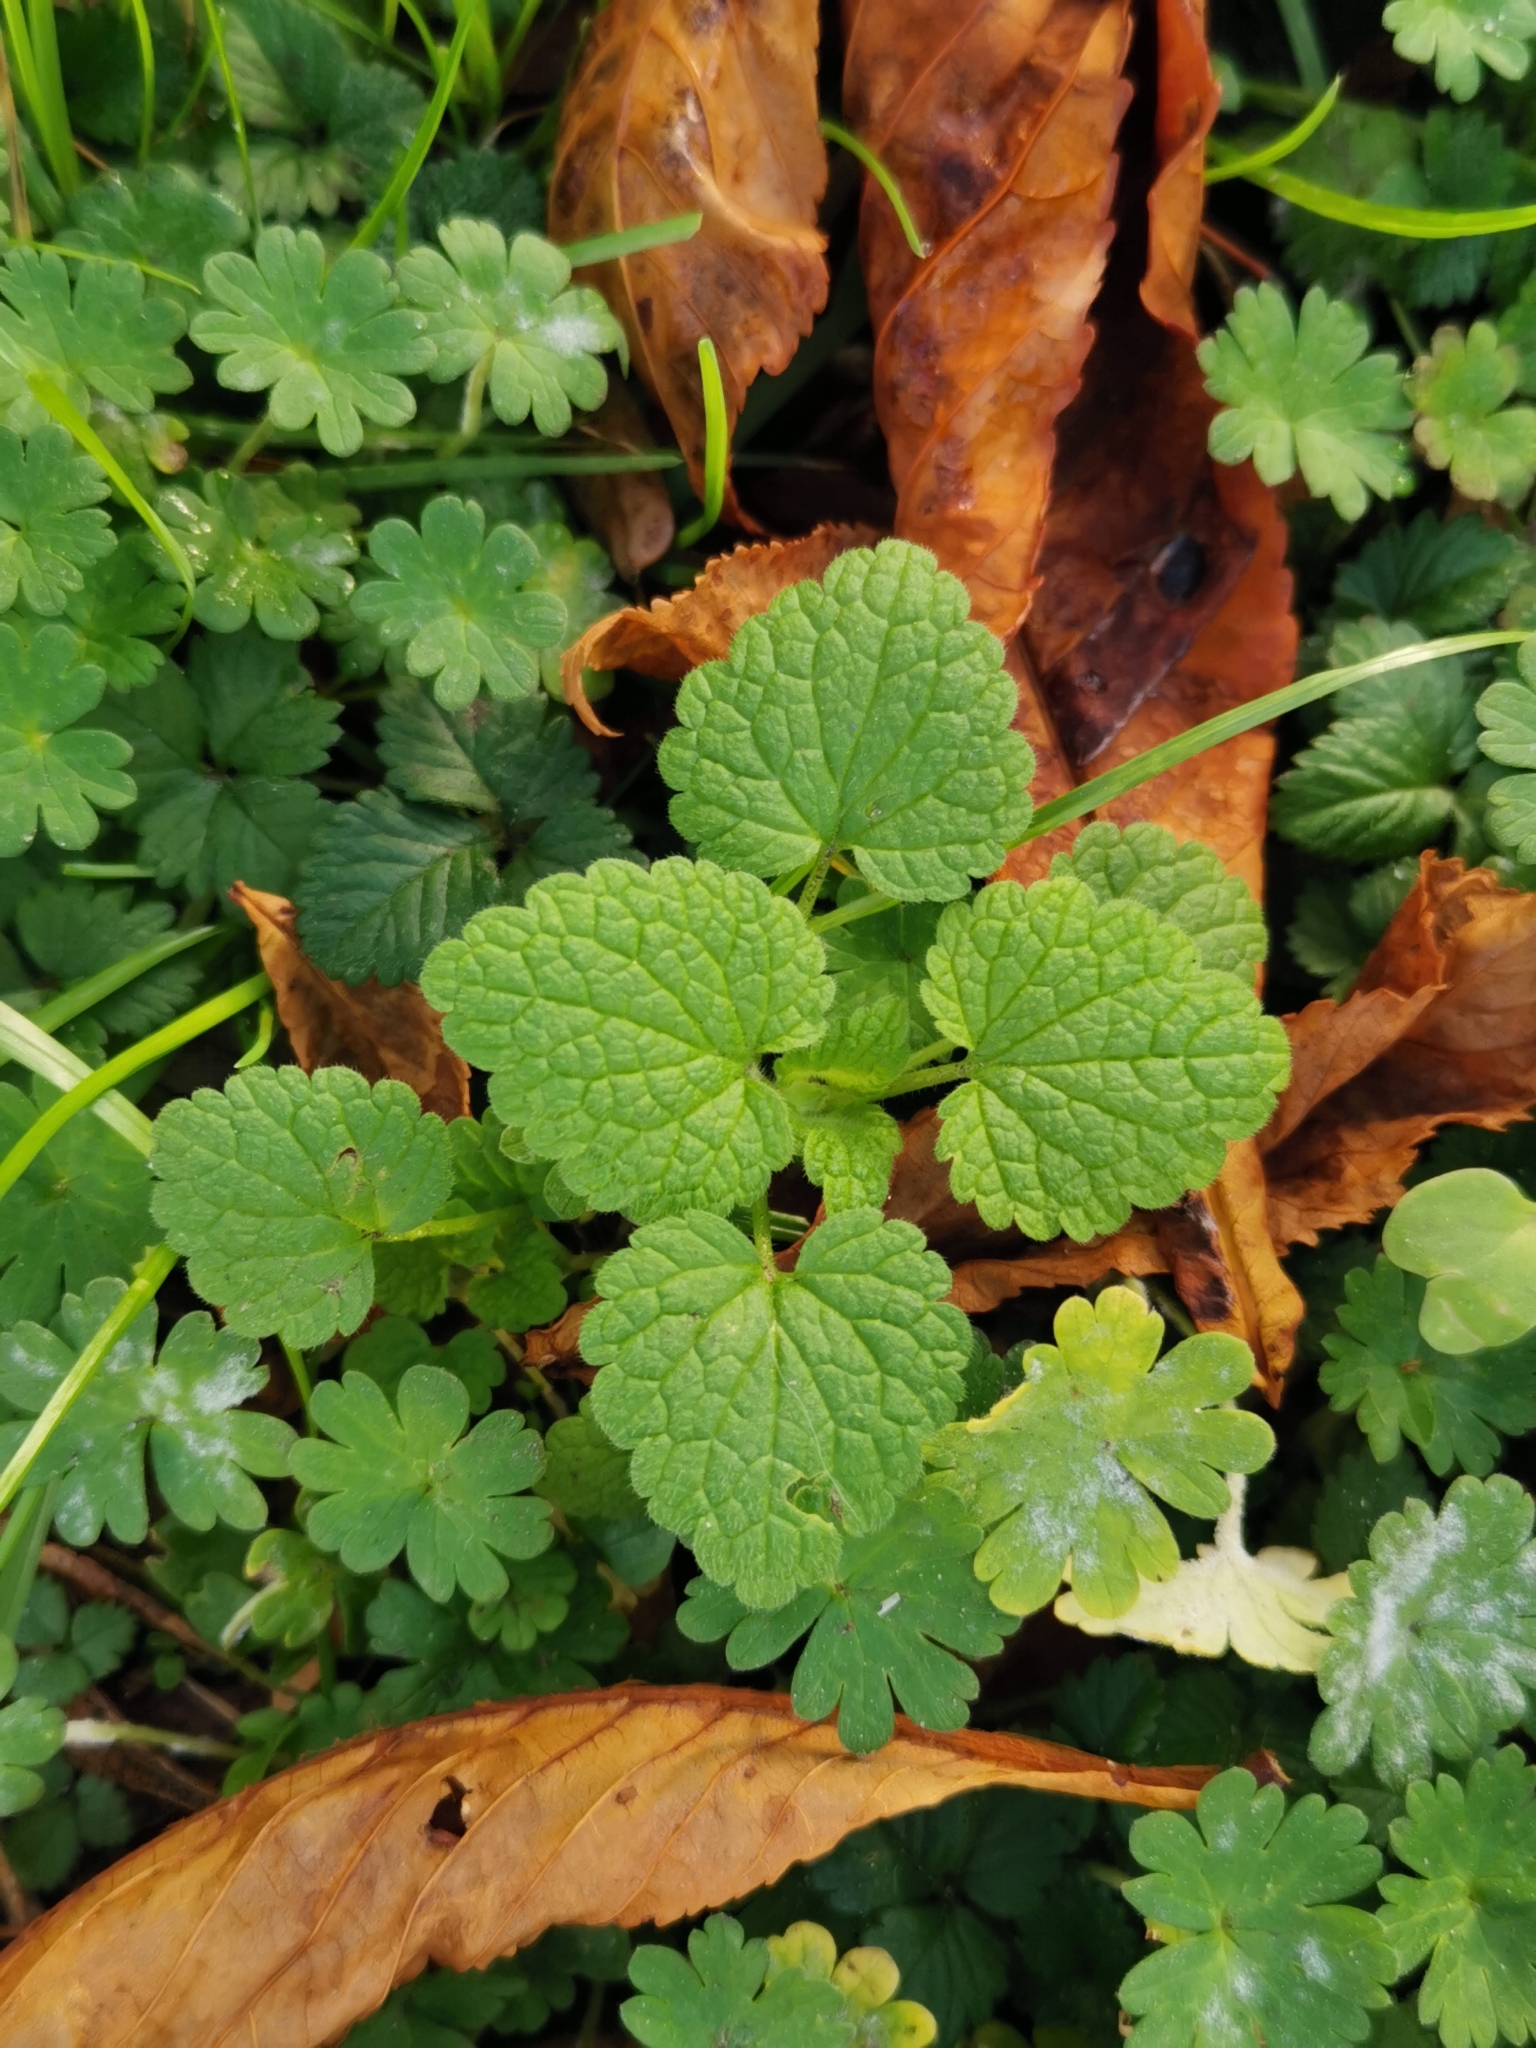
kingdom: Plantae
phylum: Tracheophyta
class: Magnoliopsida
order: Lamiales
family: Lamiaceae
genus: Lamium
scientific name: Lamium purpureum
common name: Red dead-nettle
